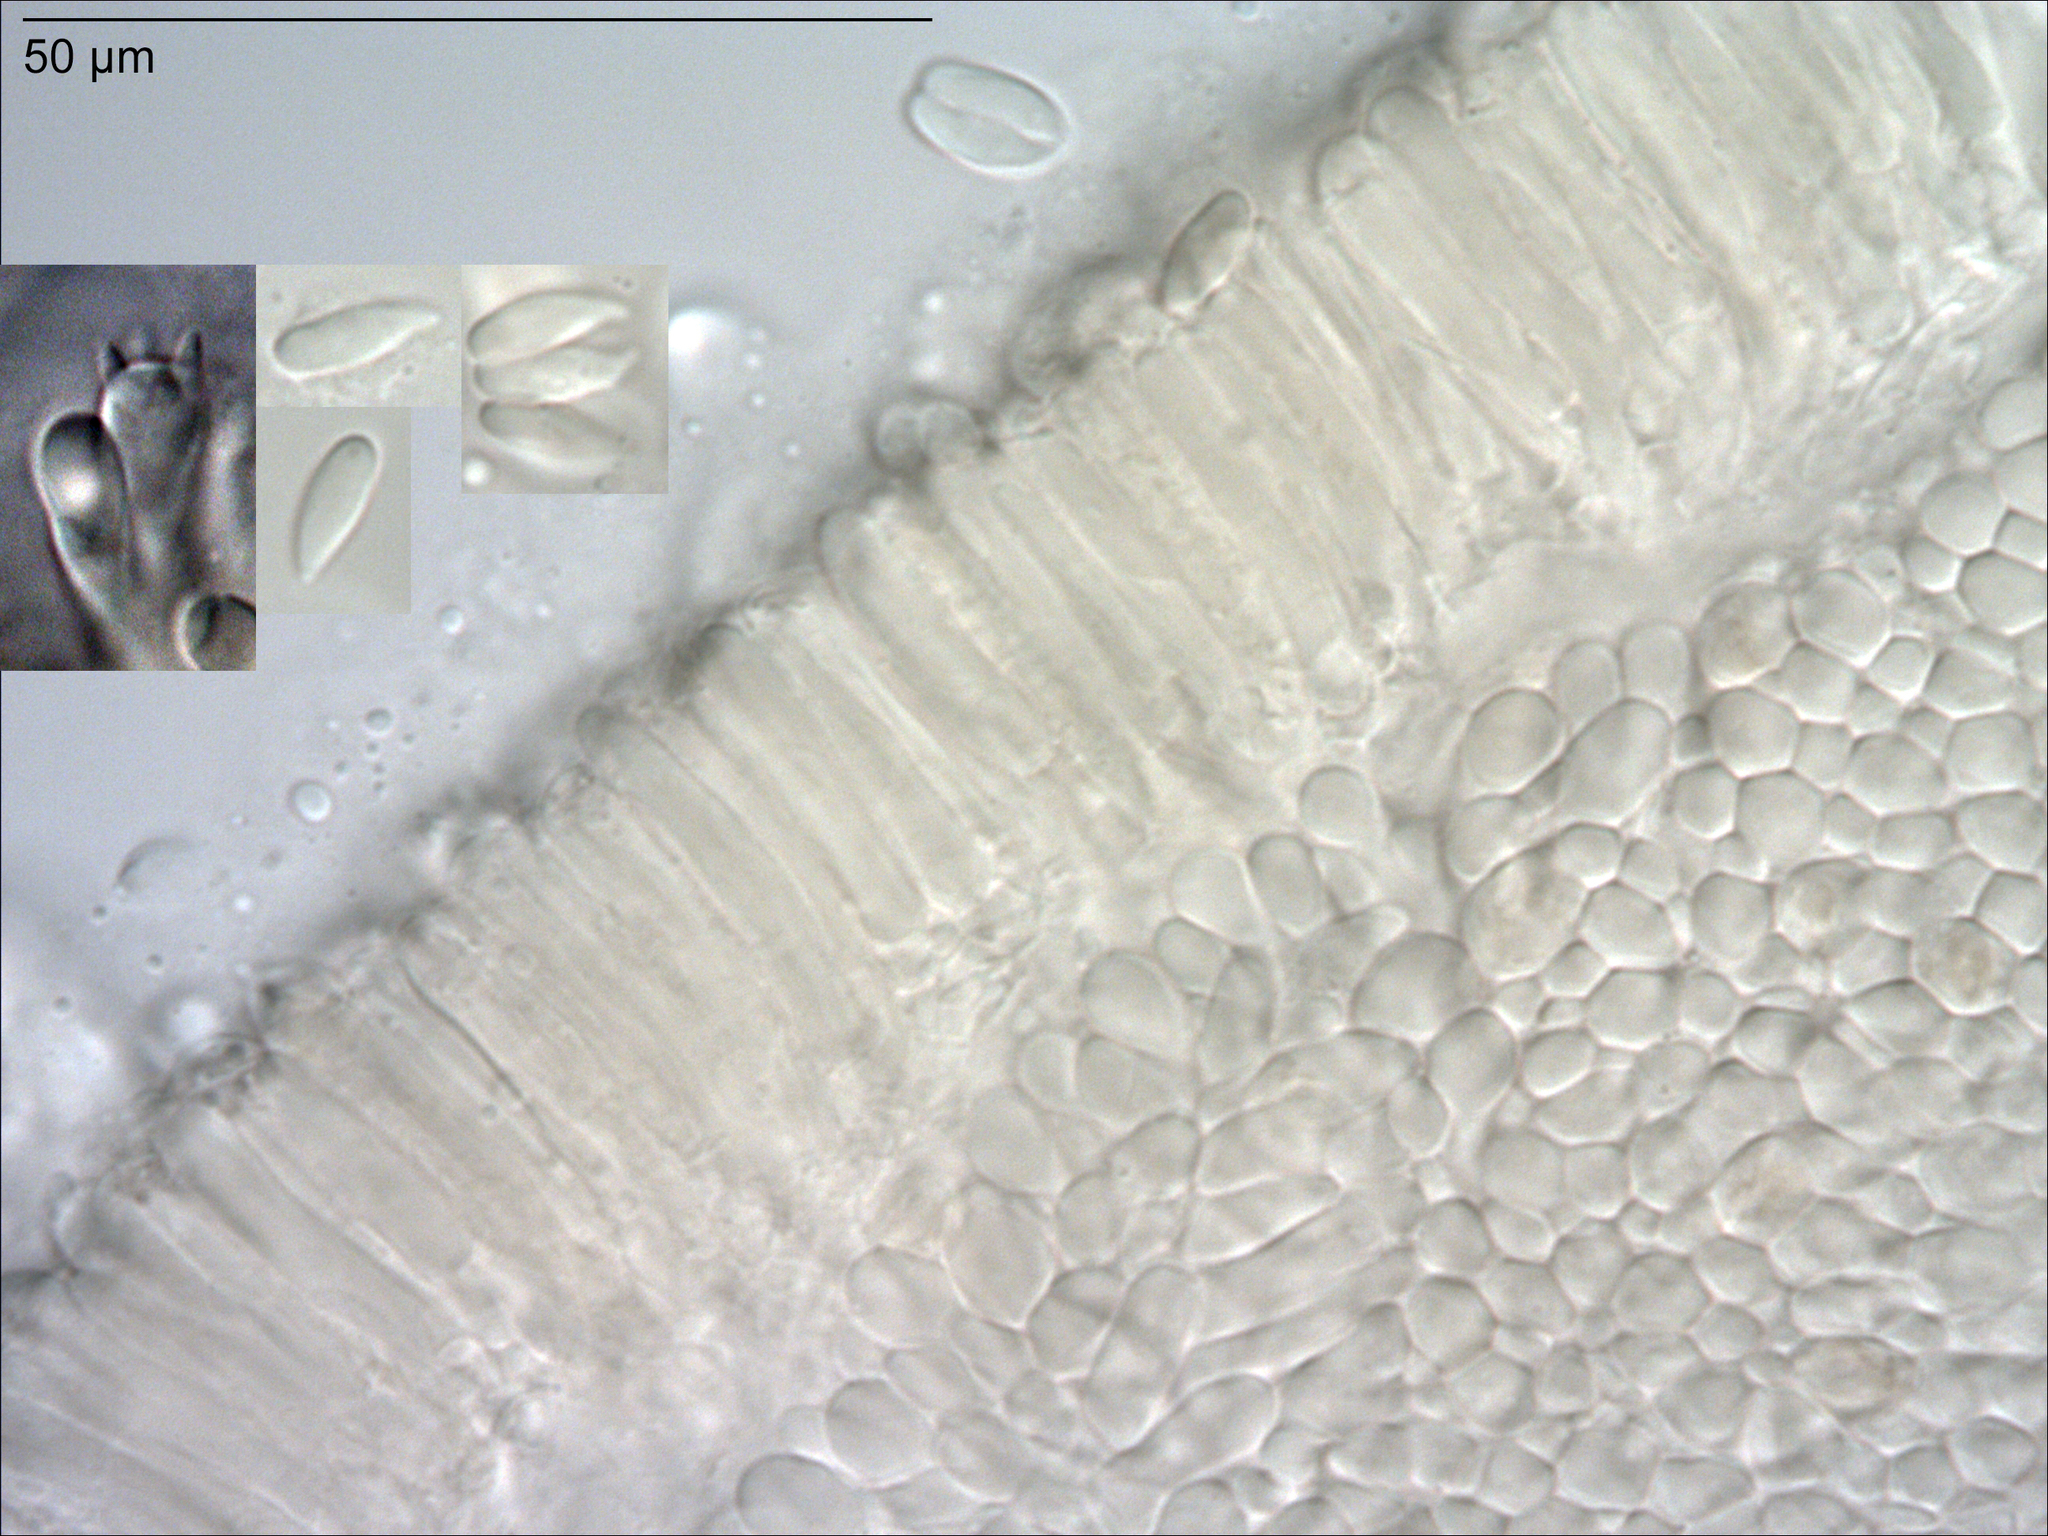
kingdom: Fungi
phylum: Basidiomycota
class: Agaricomycetes
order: Agaricales
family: Mycenaceae
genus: Hemimycena
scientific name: Hemimycena lactea
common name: Milky bonnet
